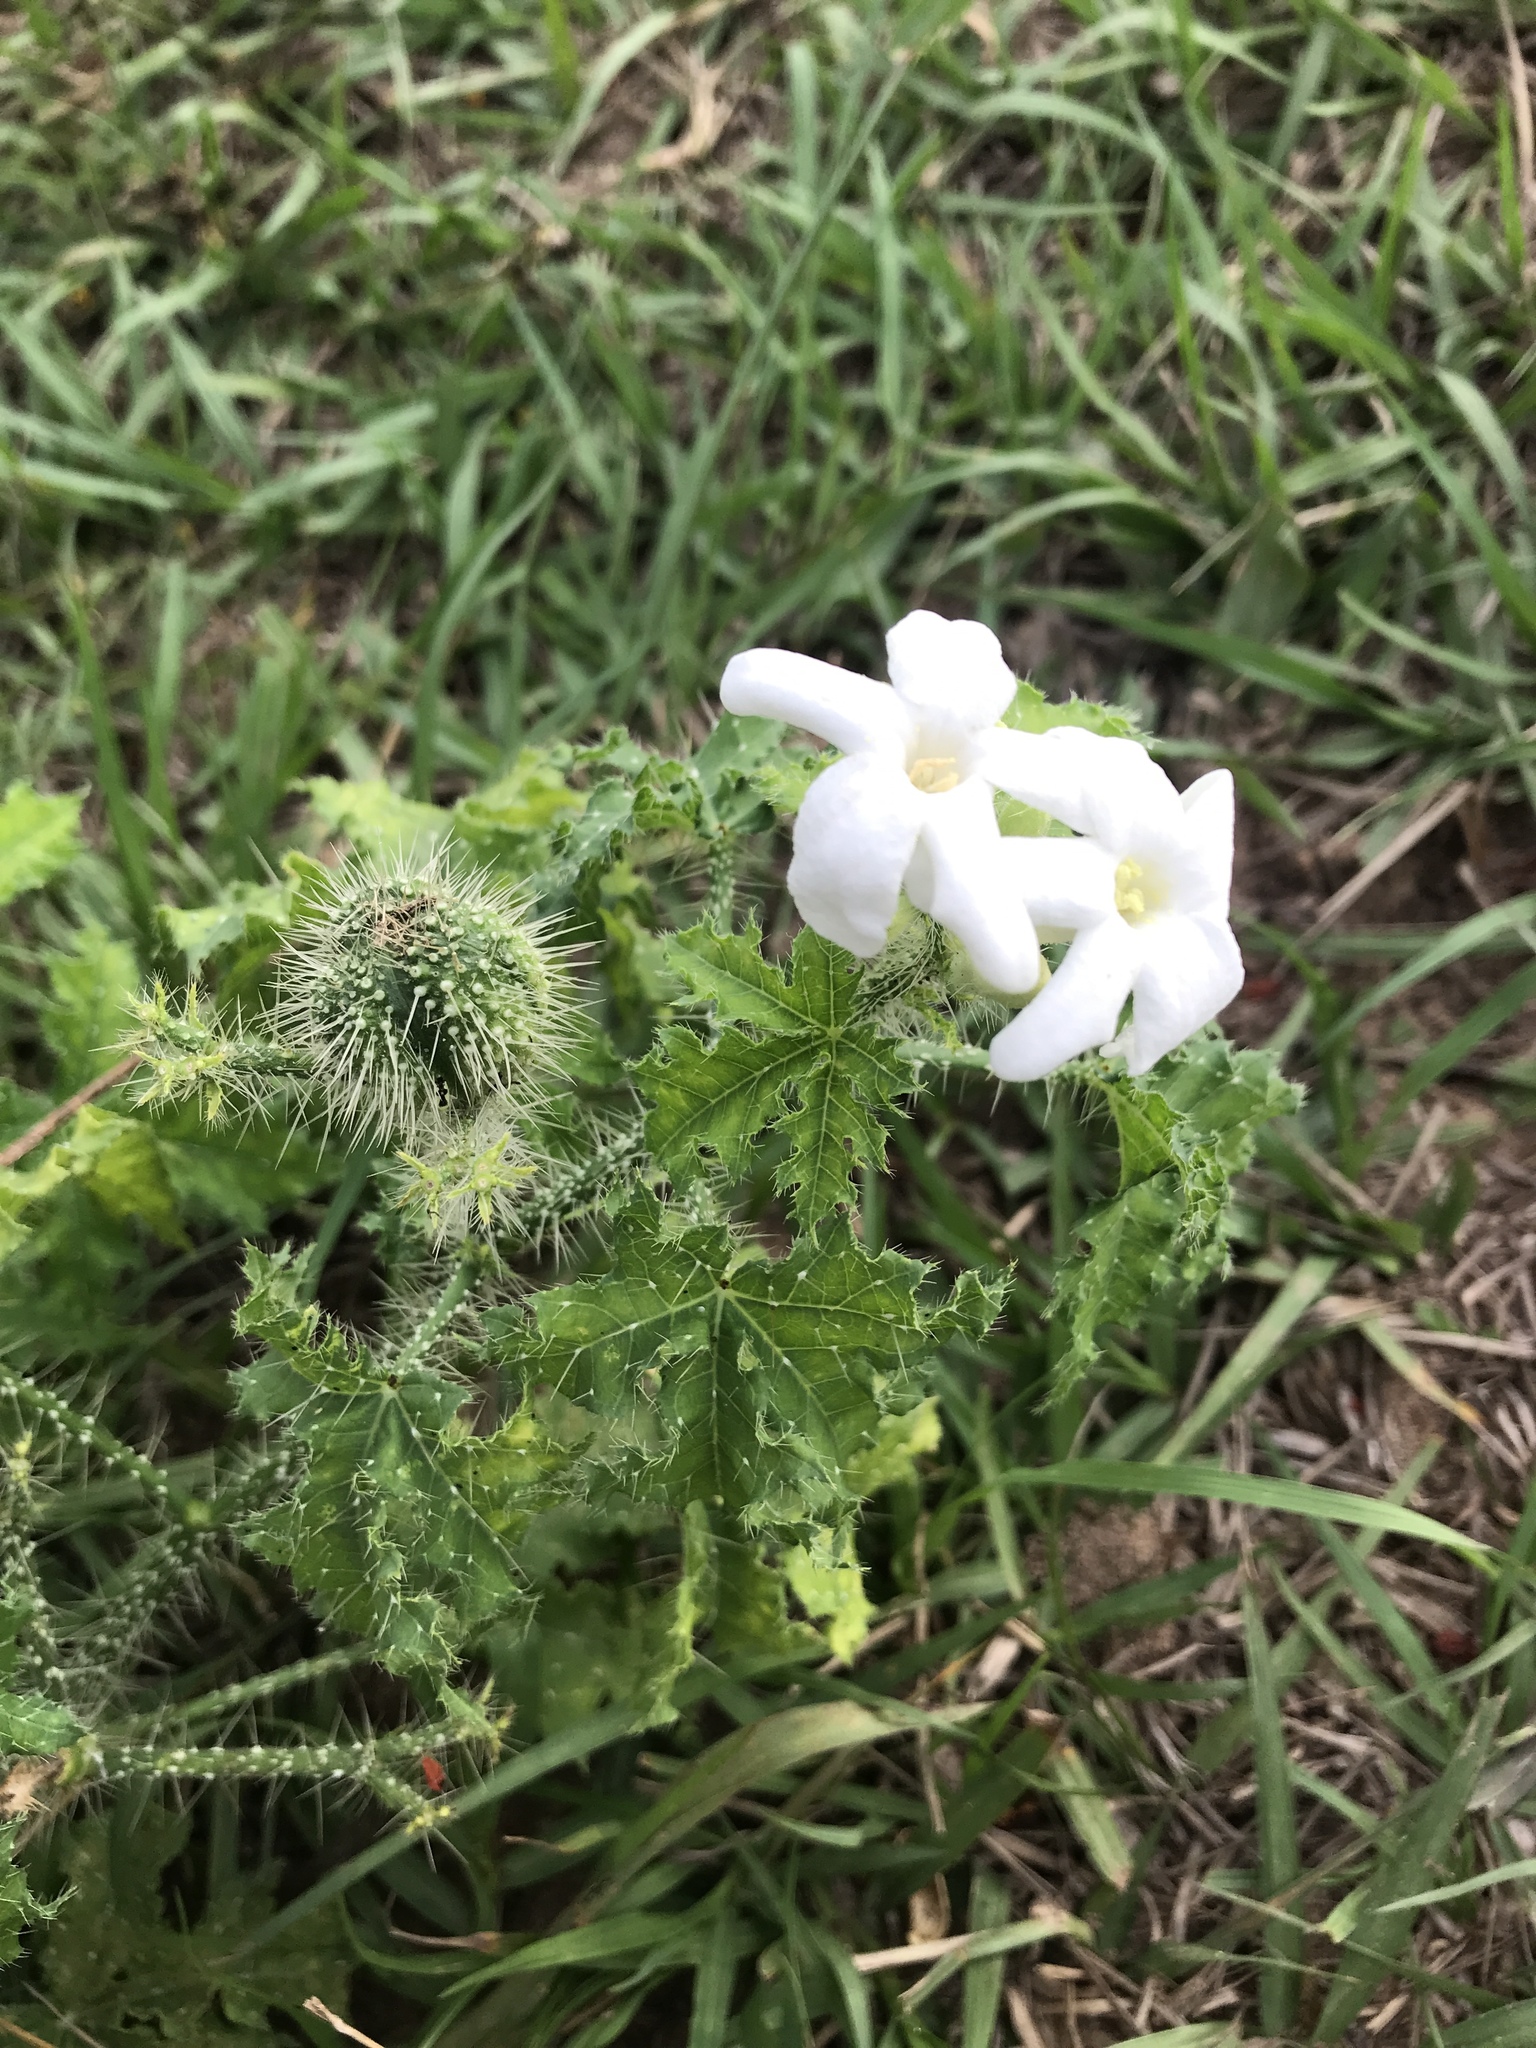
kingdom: Plantae
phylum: Tracheophyta
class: Magnoliopsida
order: Malpighiales
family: Euphorbiaceae
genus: Cnidoscolus
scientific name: Cnidoscolus texanus
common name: Texas bull-nettle
